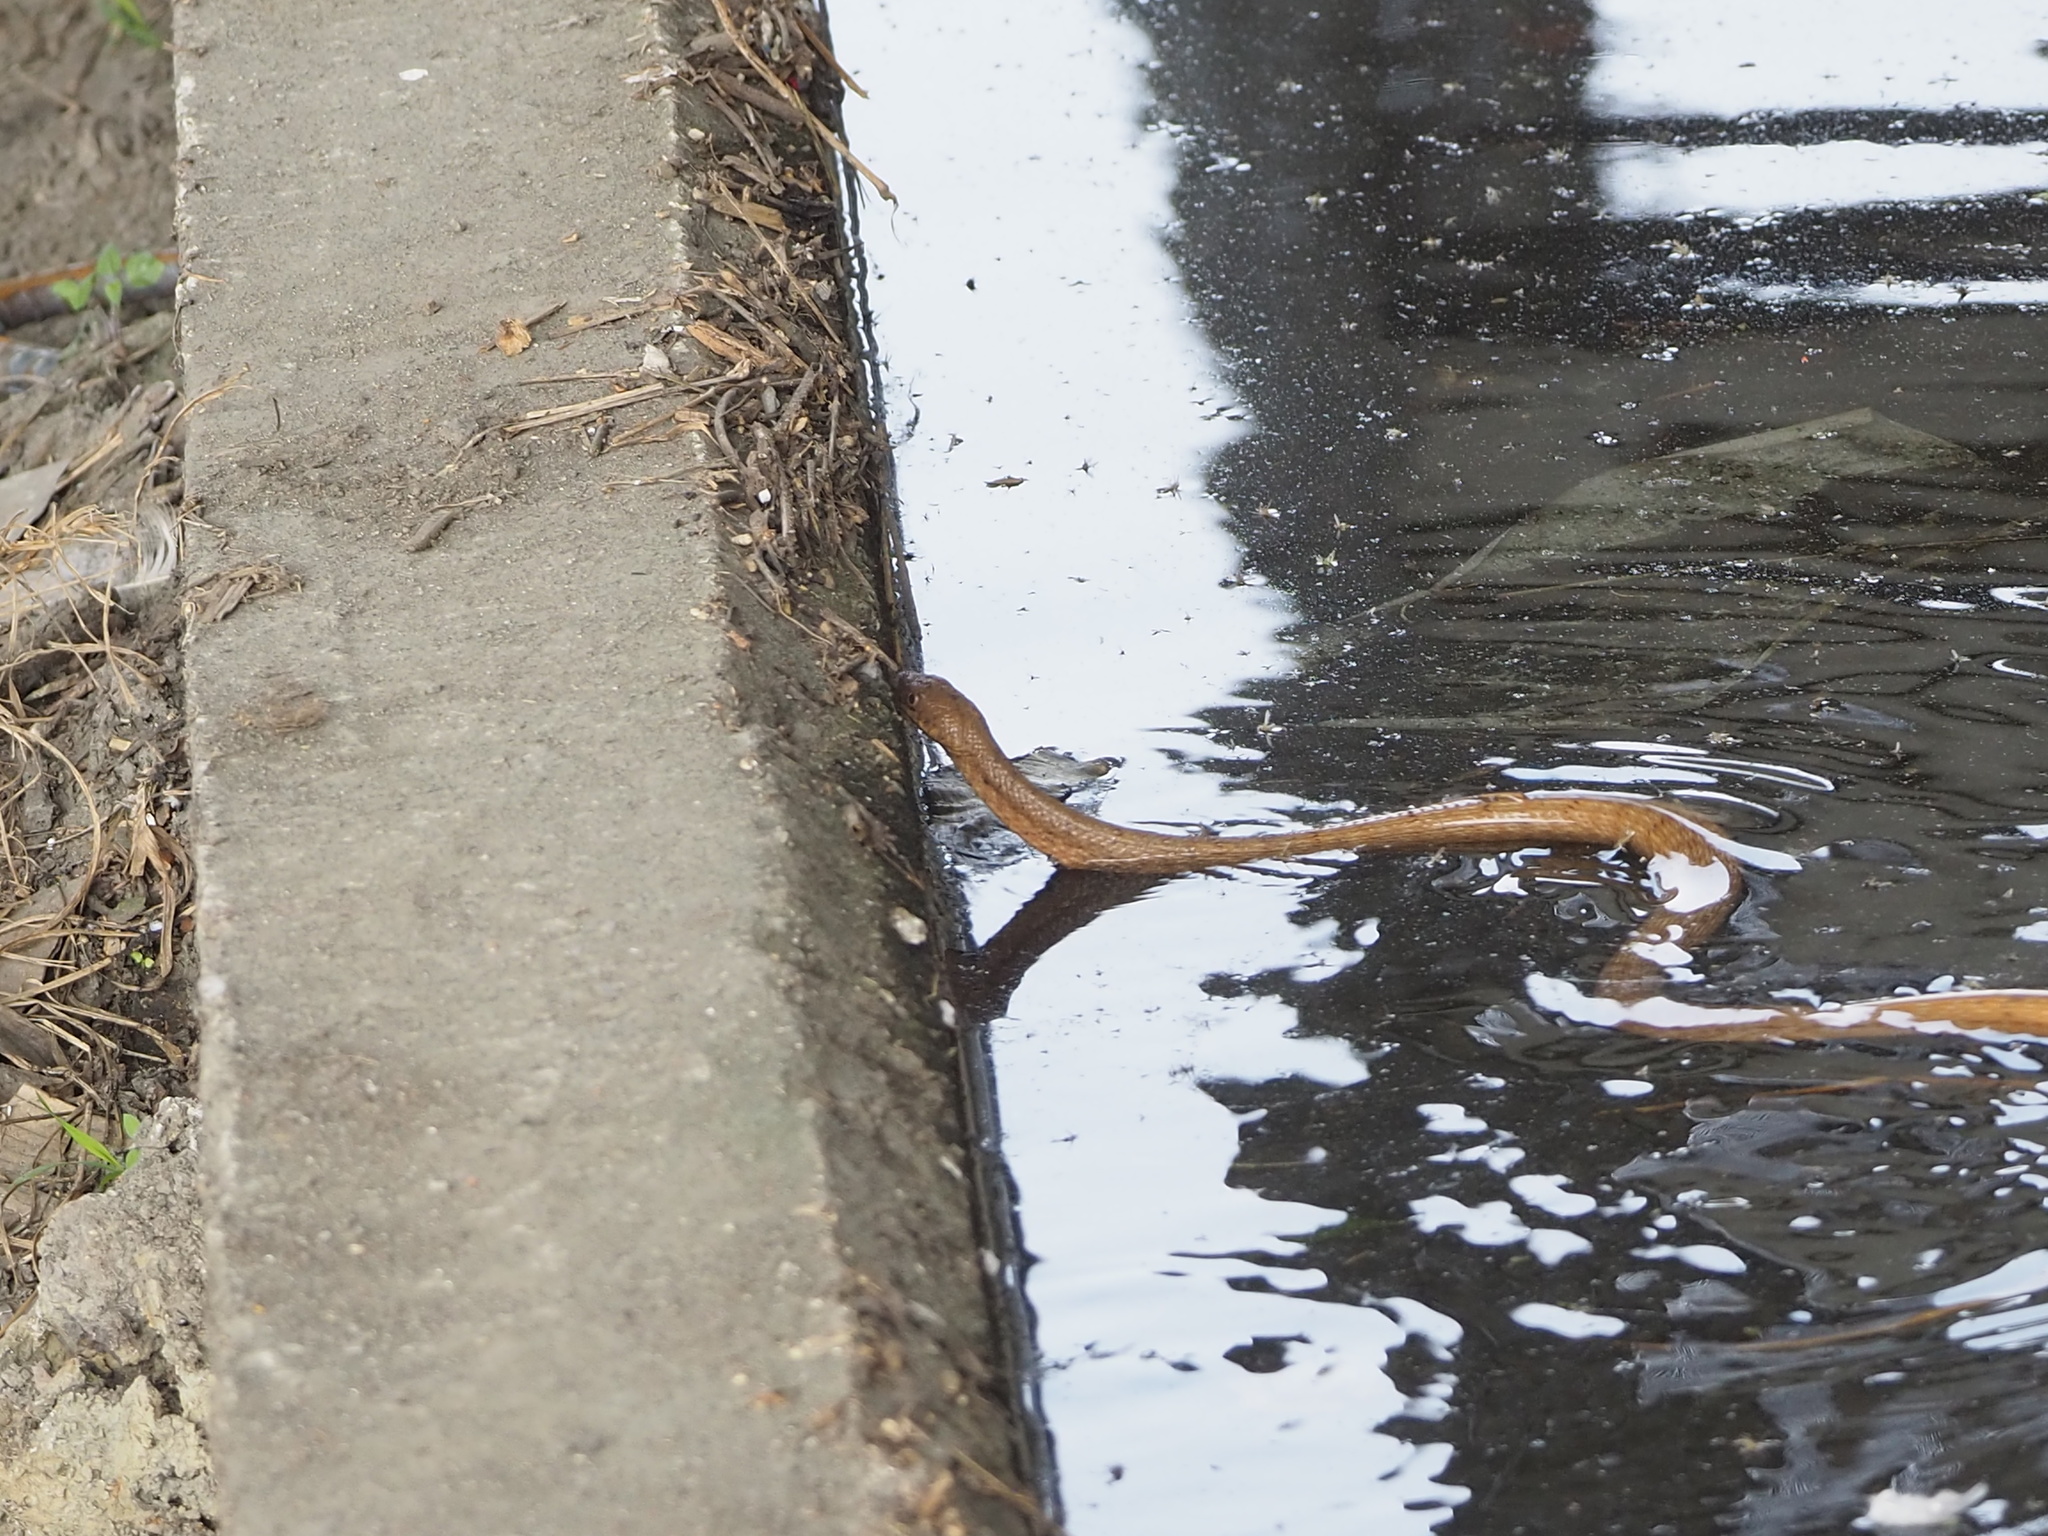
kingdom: Animalia
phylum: Chordata
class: Squamata
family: Colubridae
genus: Elaphe
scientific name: Elaphe carinata
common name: Taiwan stink snake
